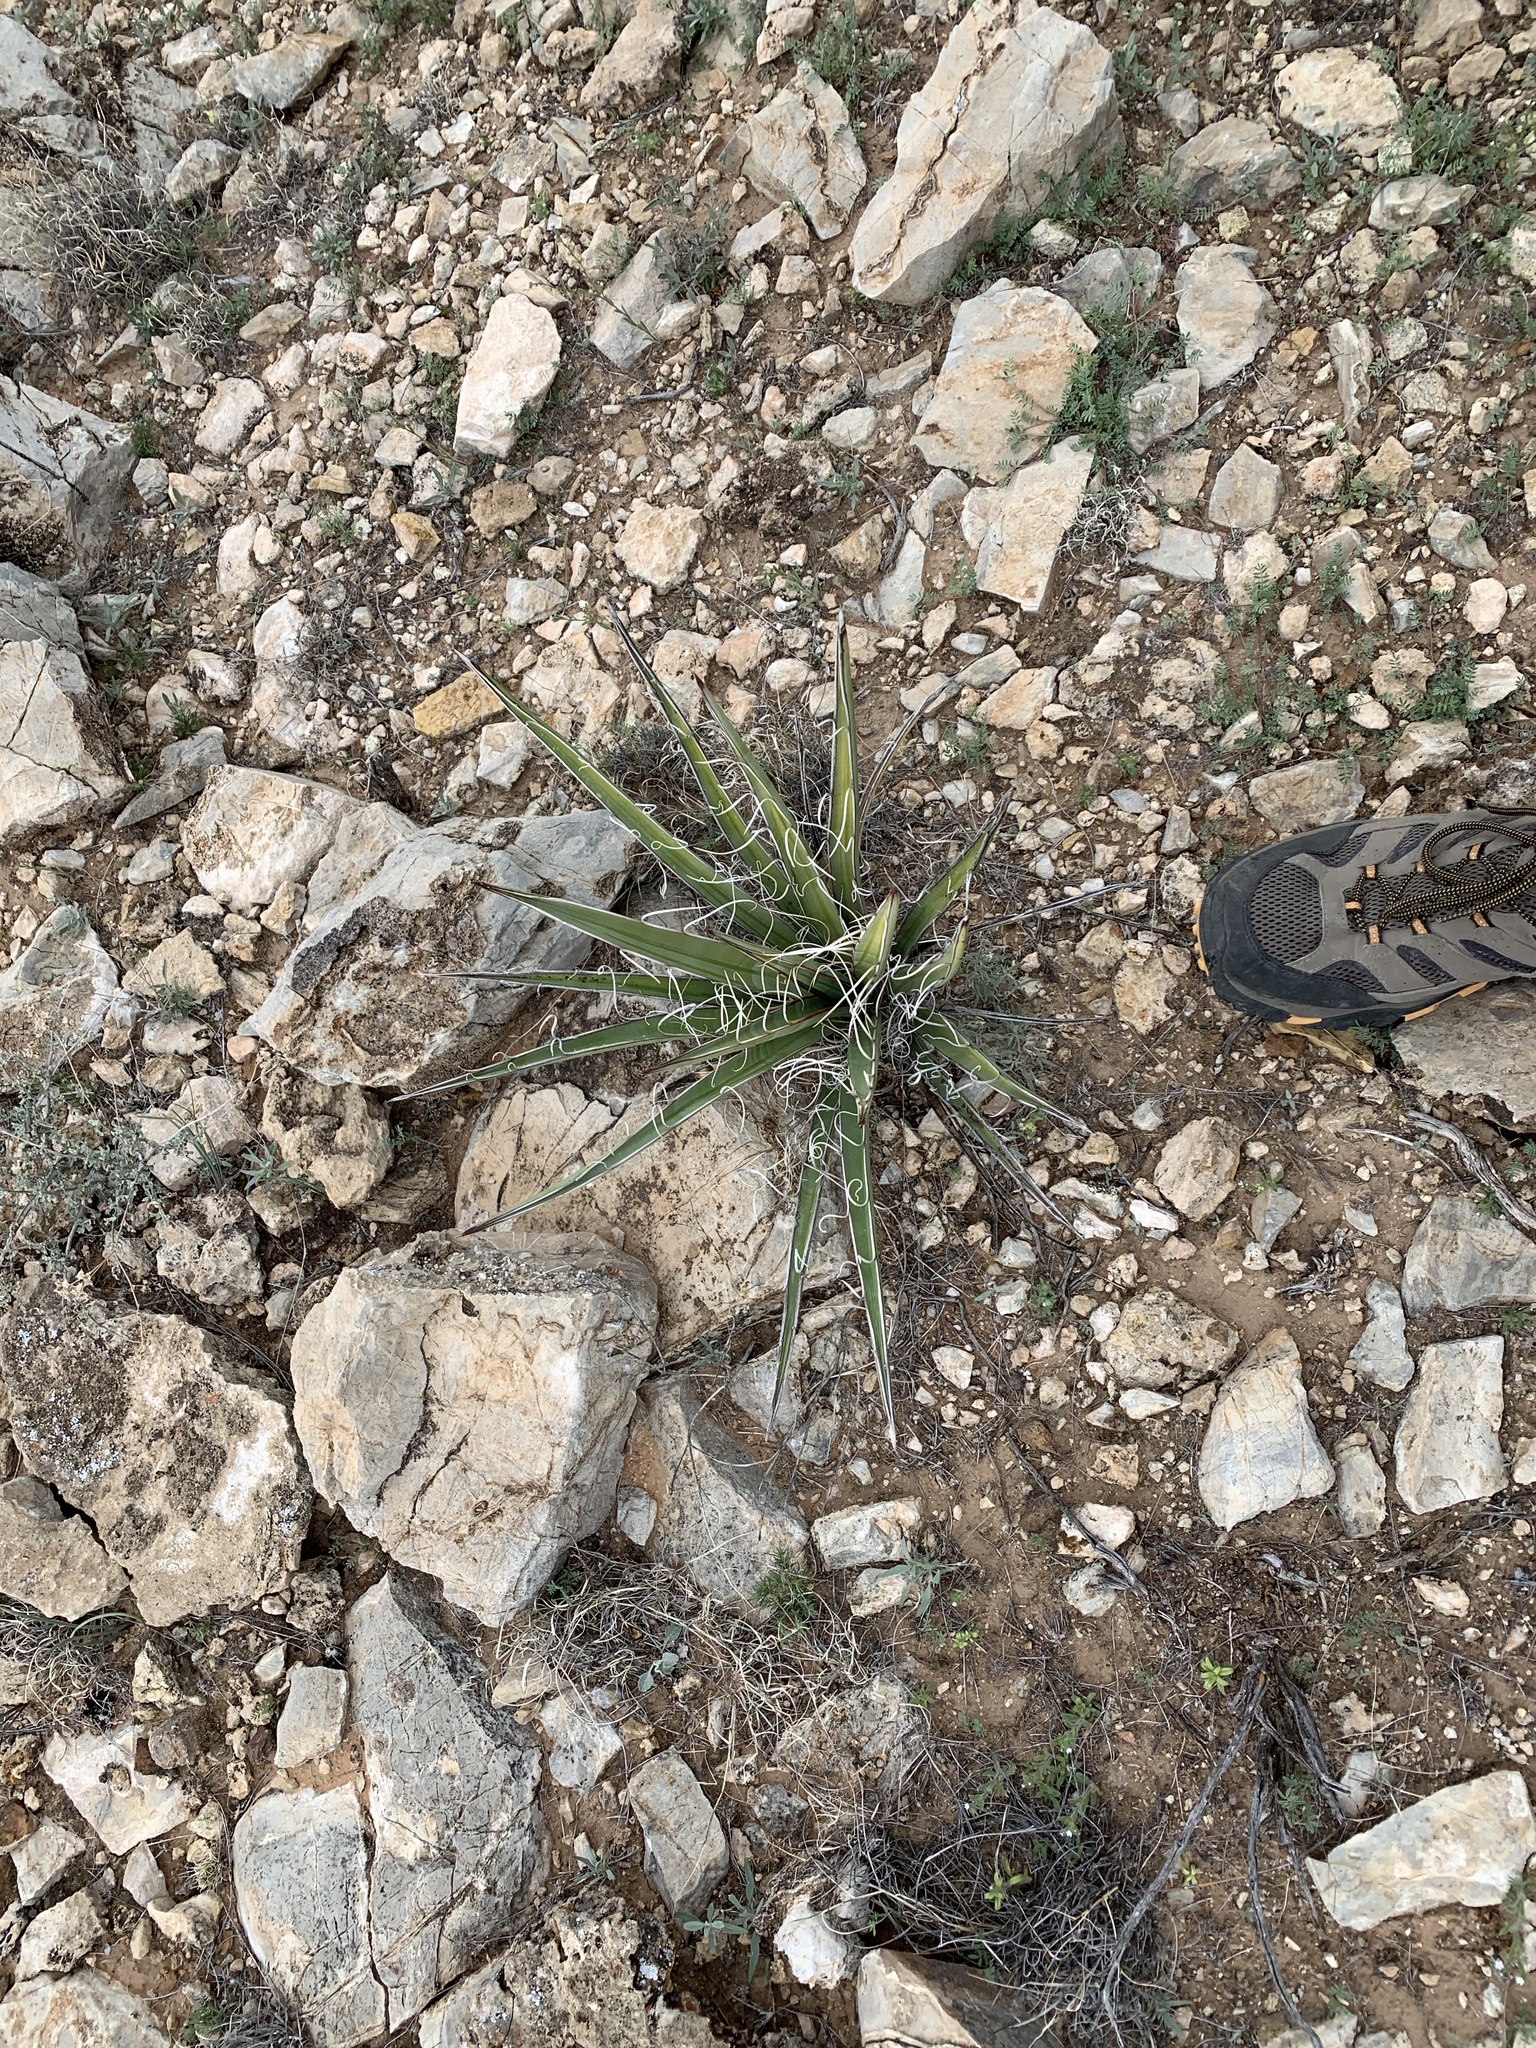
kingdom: Plantae
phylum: Tracheophyta
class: Liliopsida
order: Asparagales
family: Asparagaceae
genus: Yucca
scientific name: Yucca baccata
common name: Banana yucca
